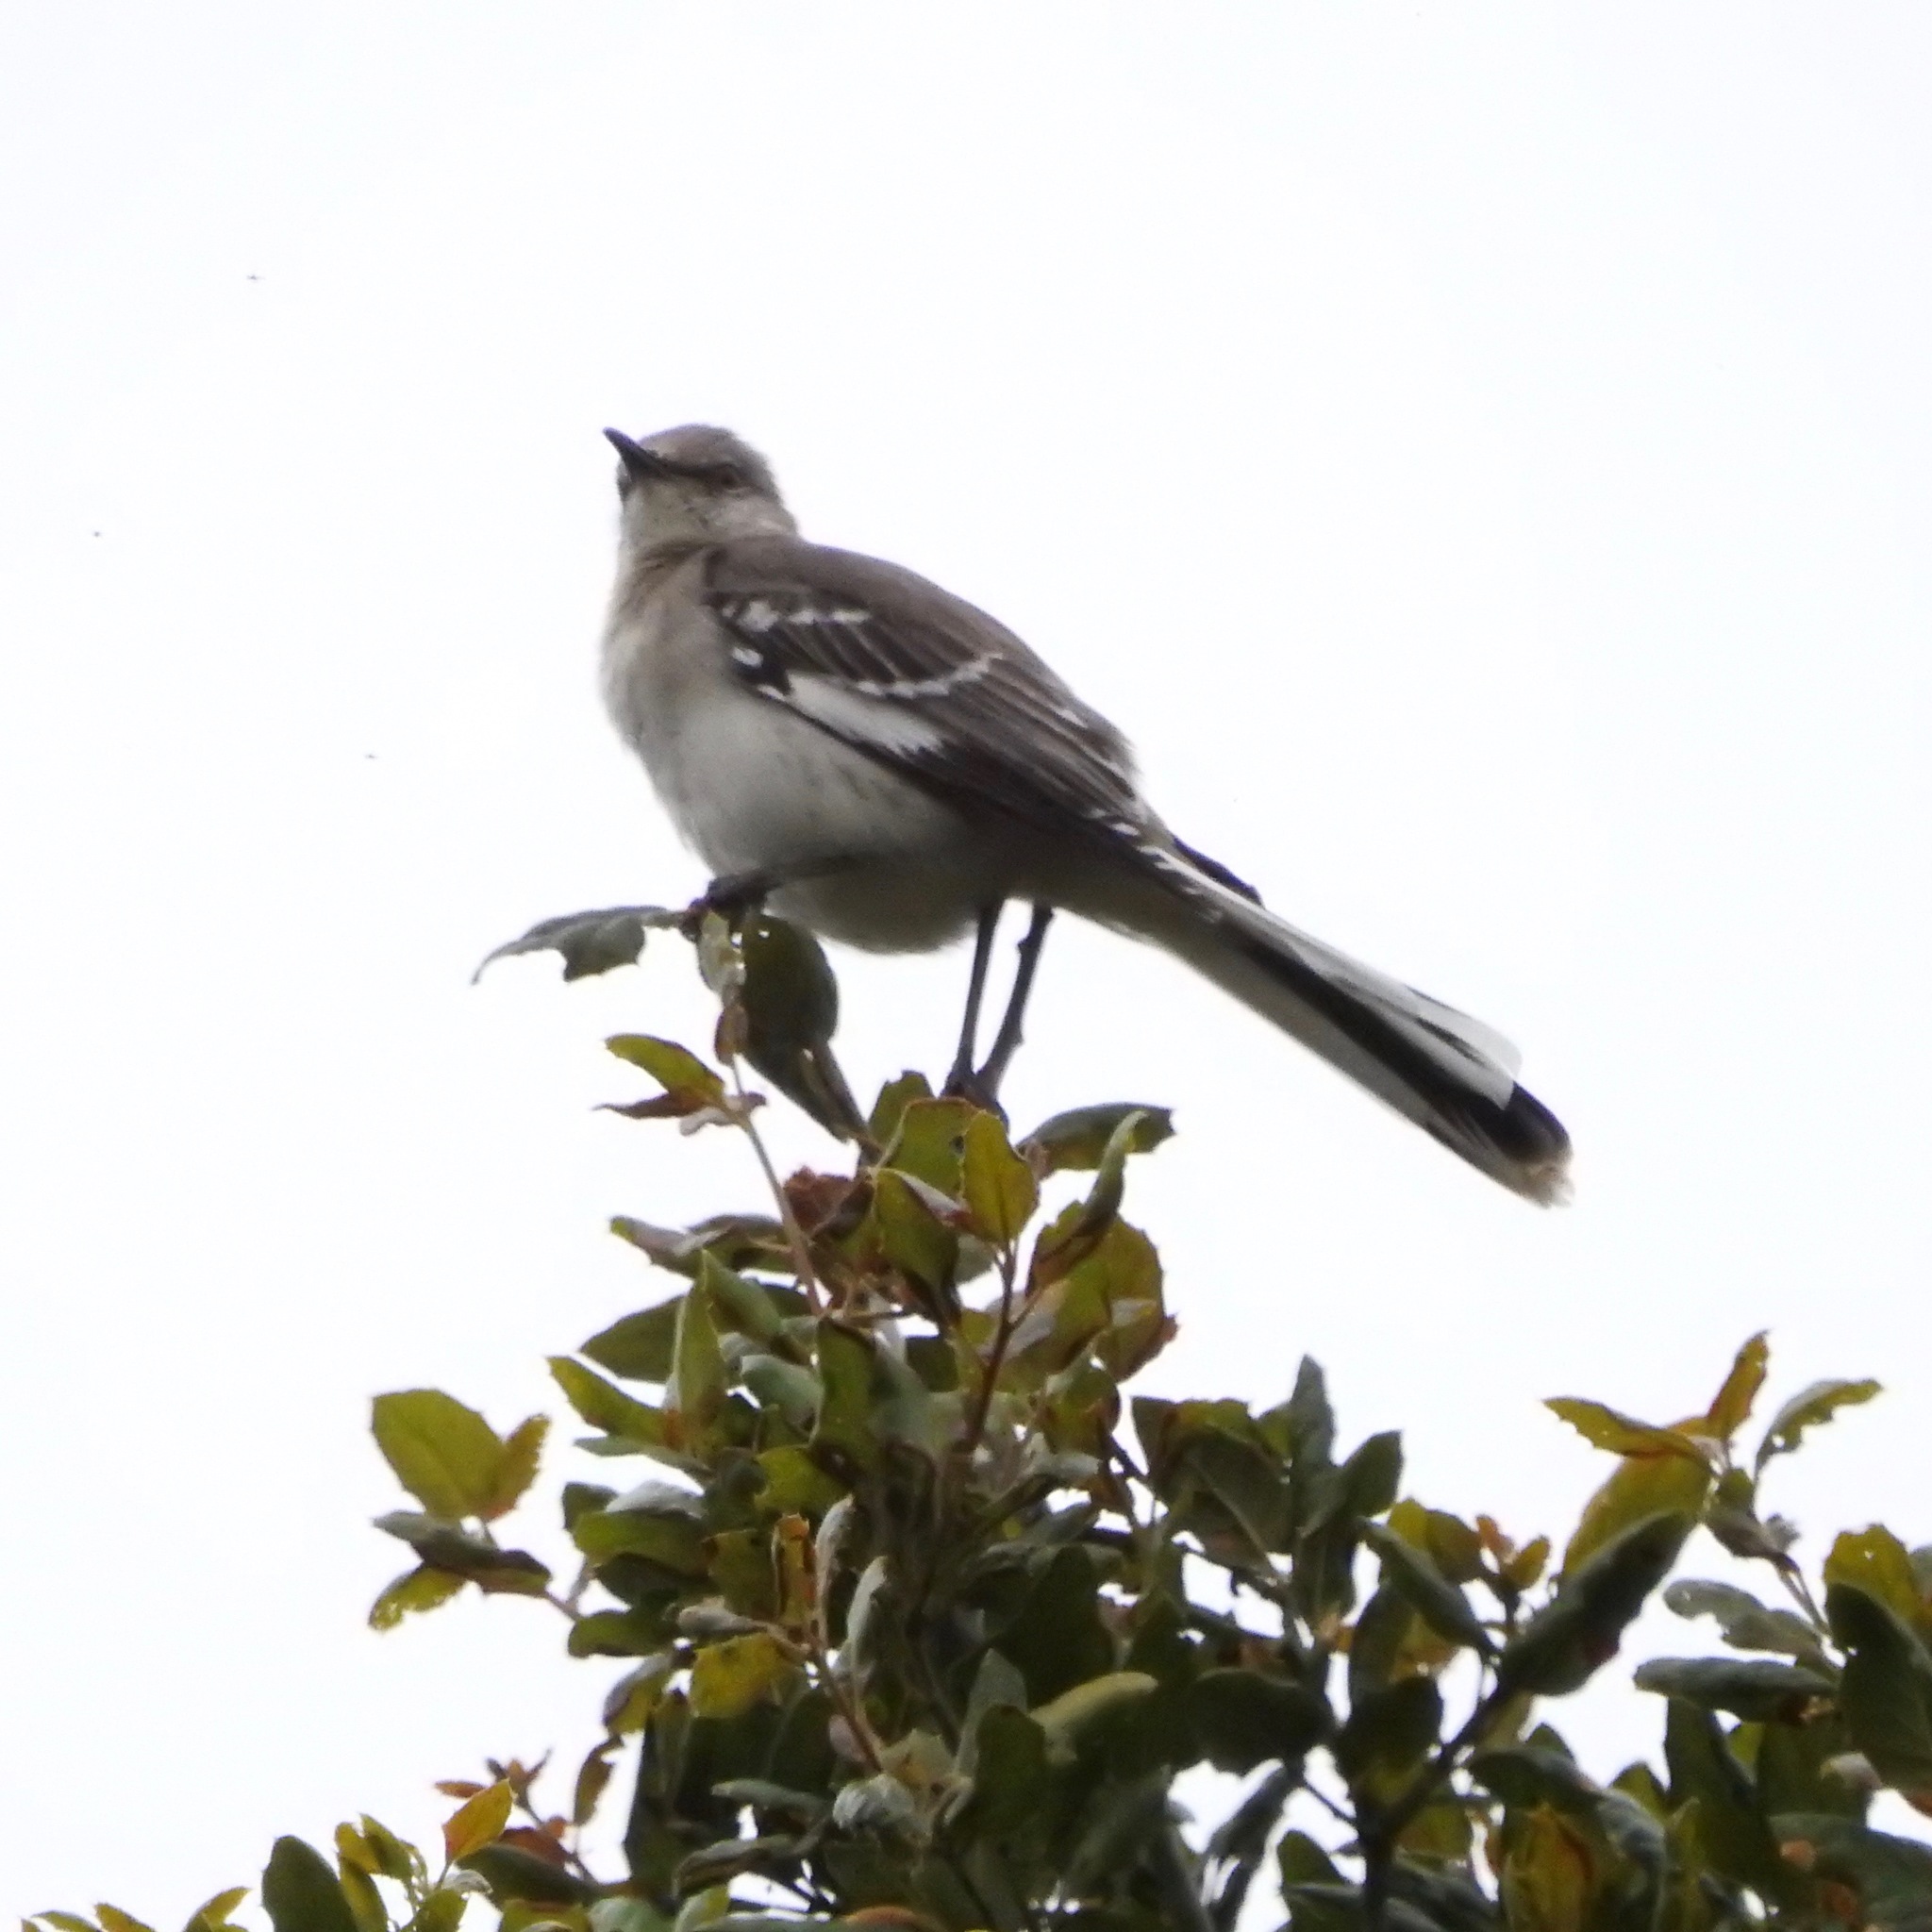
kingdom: Animalia
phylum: Chordata
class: Aves
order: Passeriformes
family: Mimidae
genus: Mimus
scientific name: Mimus polyglottos
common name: Northern mockingbird
